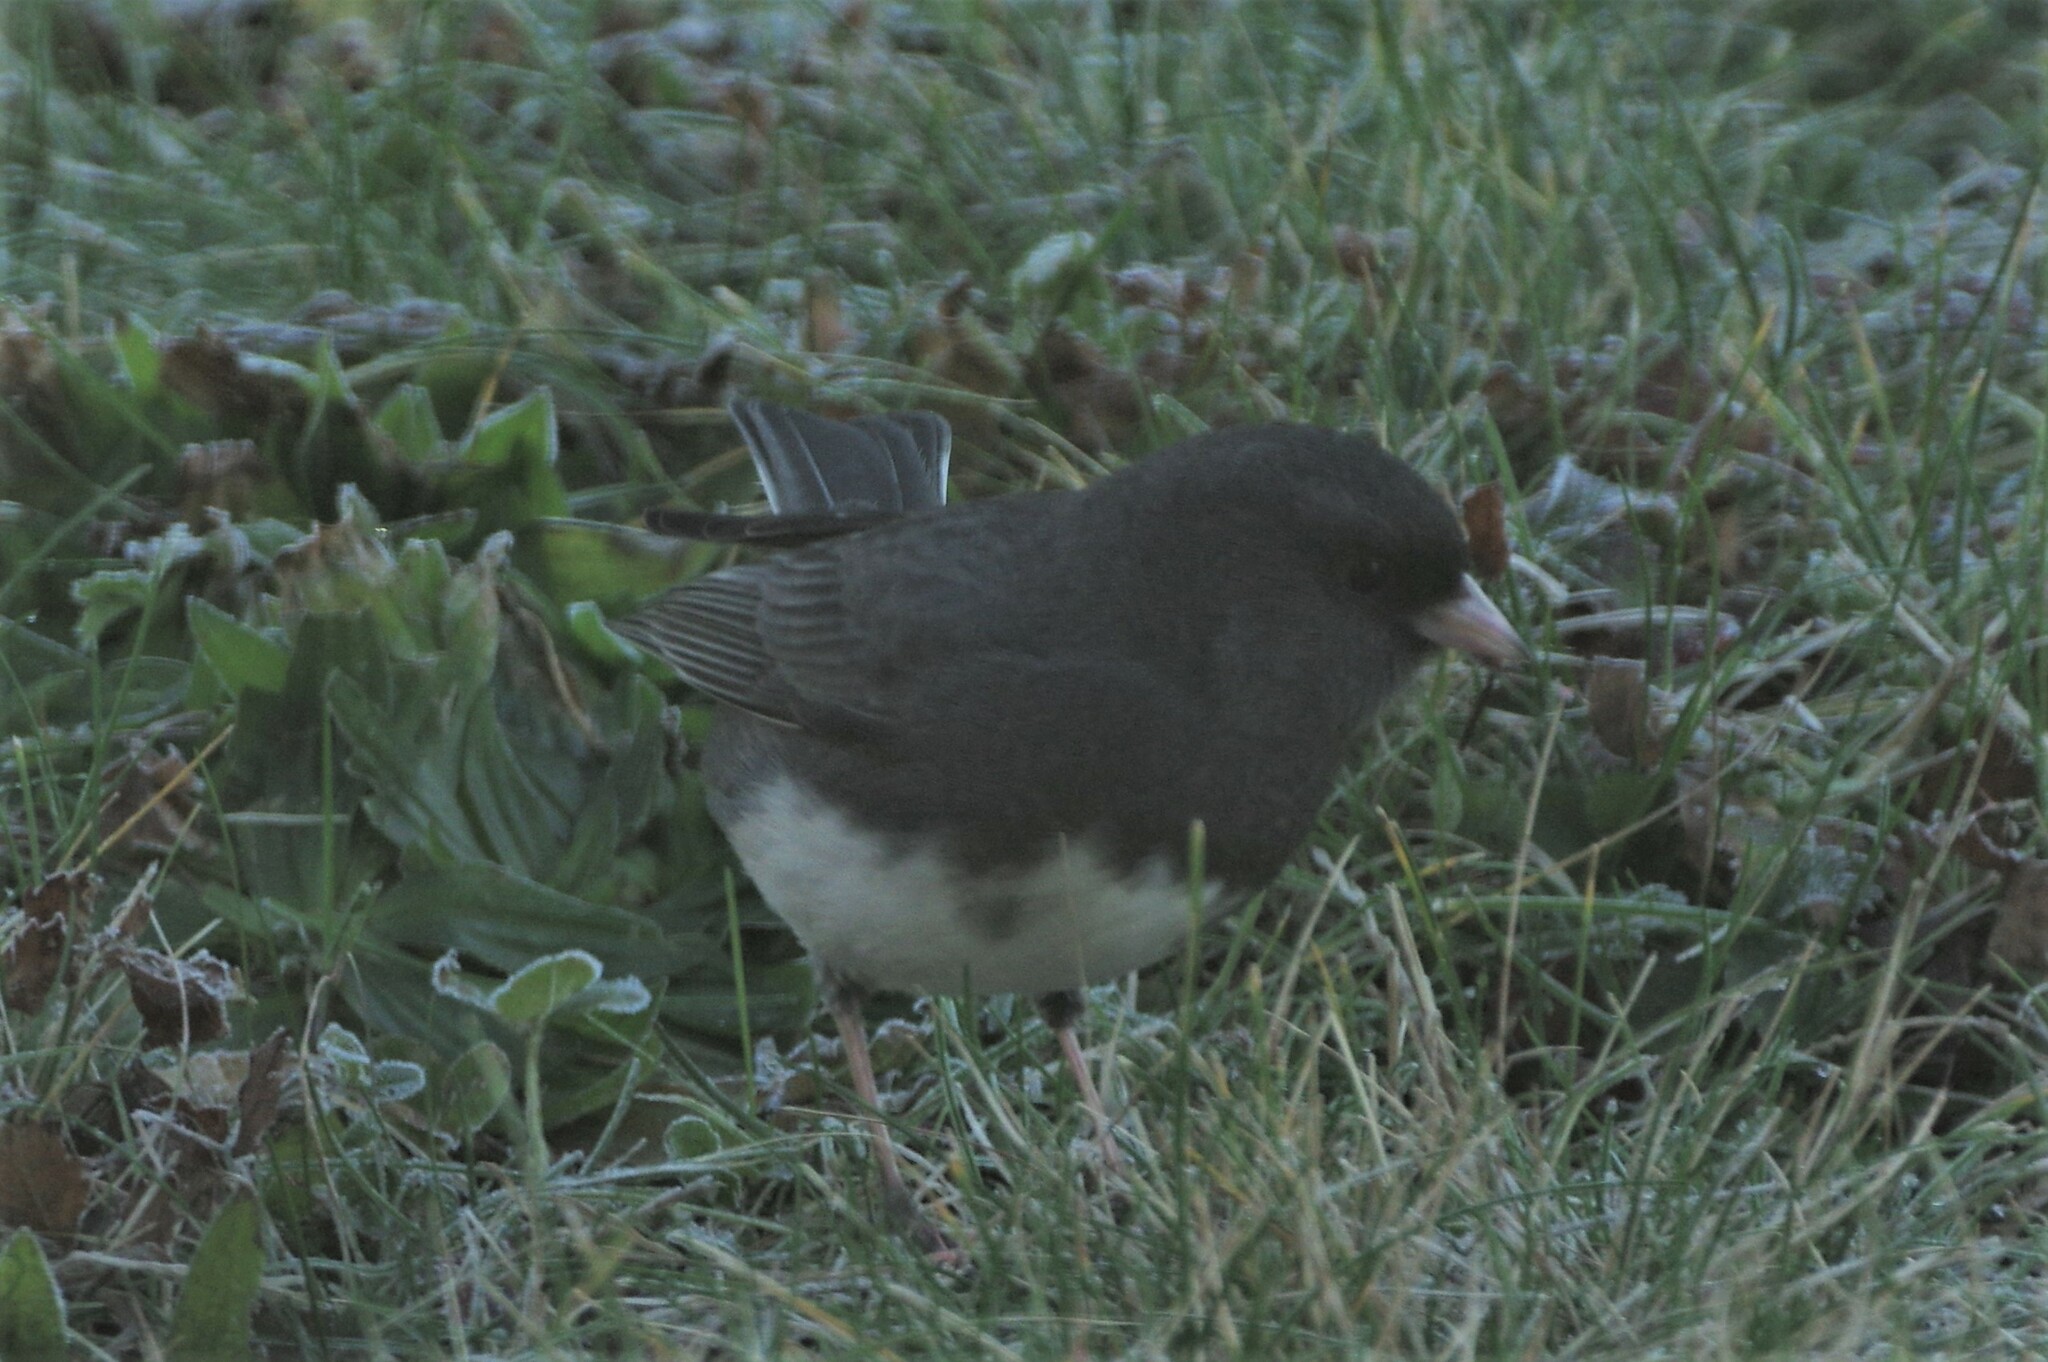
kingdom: Animalia
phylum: Chordata
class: Aves
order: Passeriformes
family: Passerellidae
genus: Junco
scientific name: Junco hyemalis
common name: Dark-eyed junco
